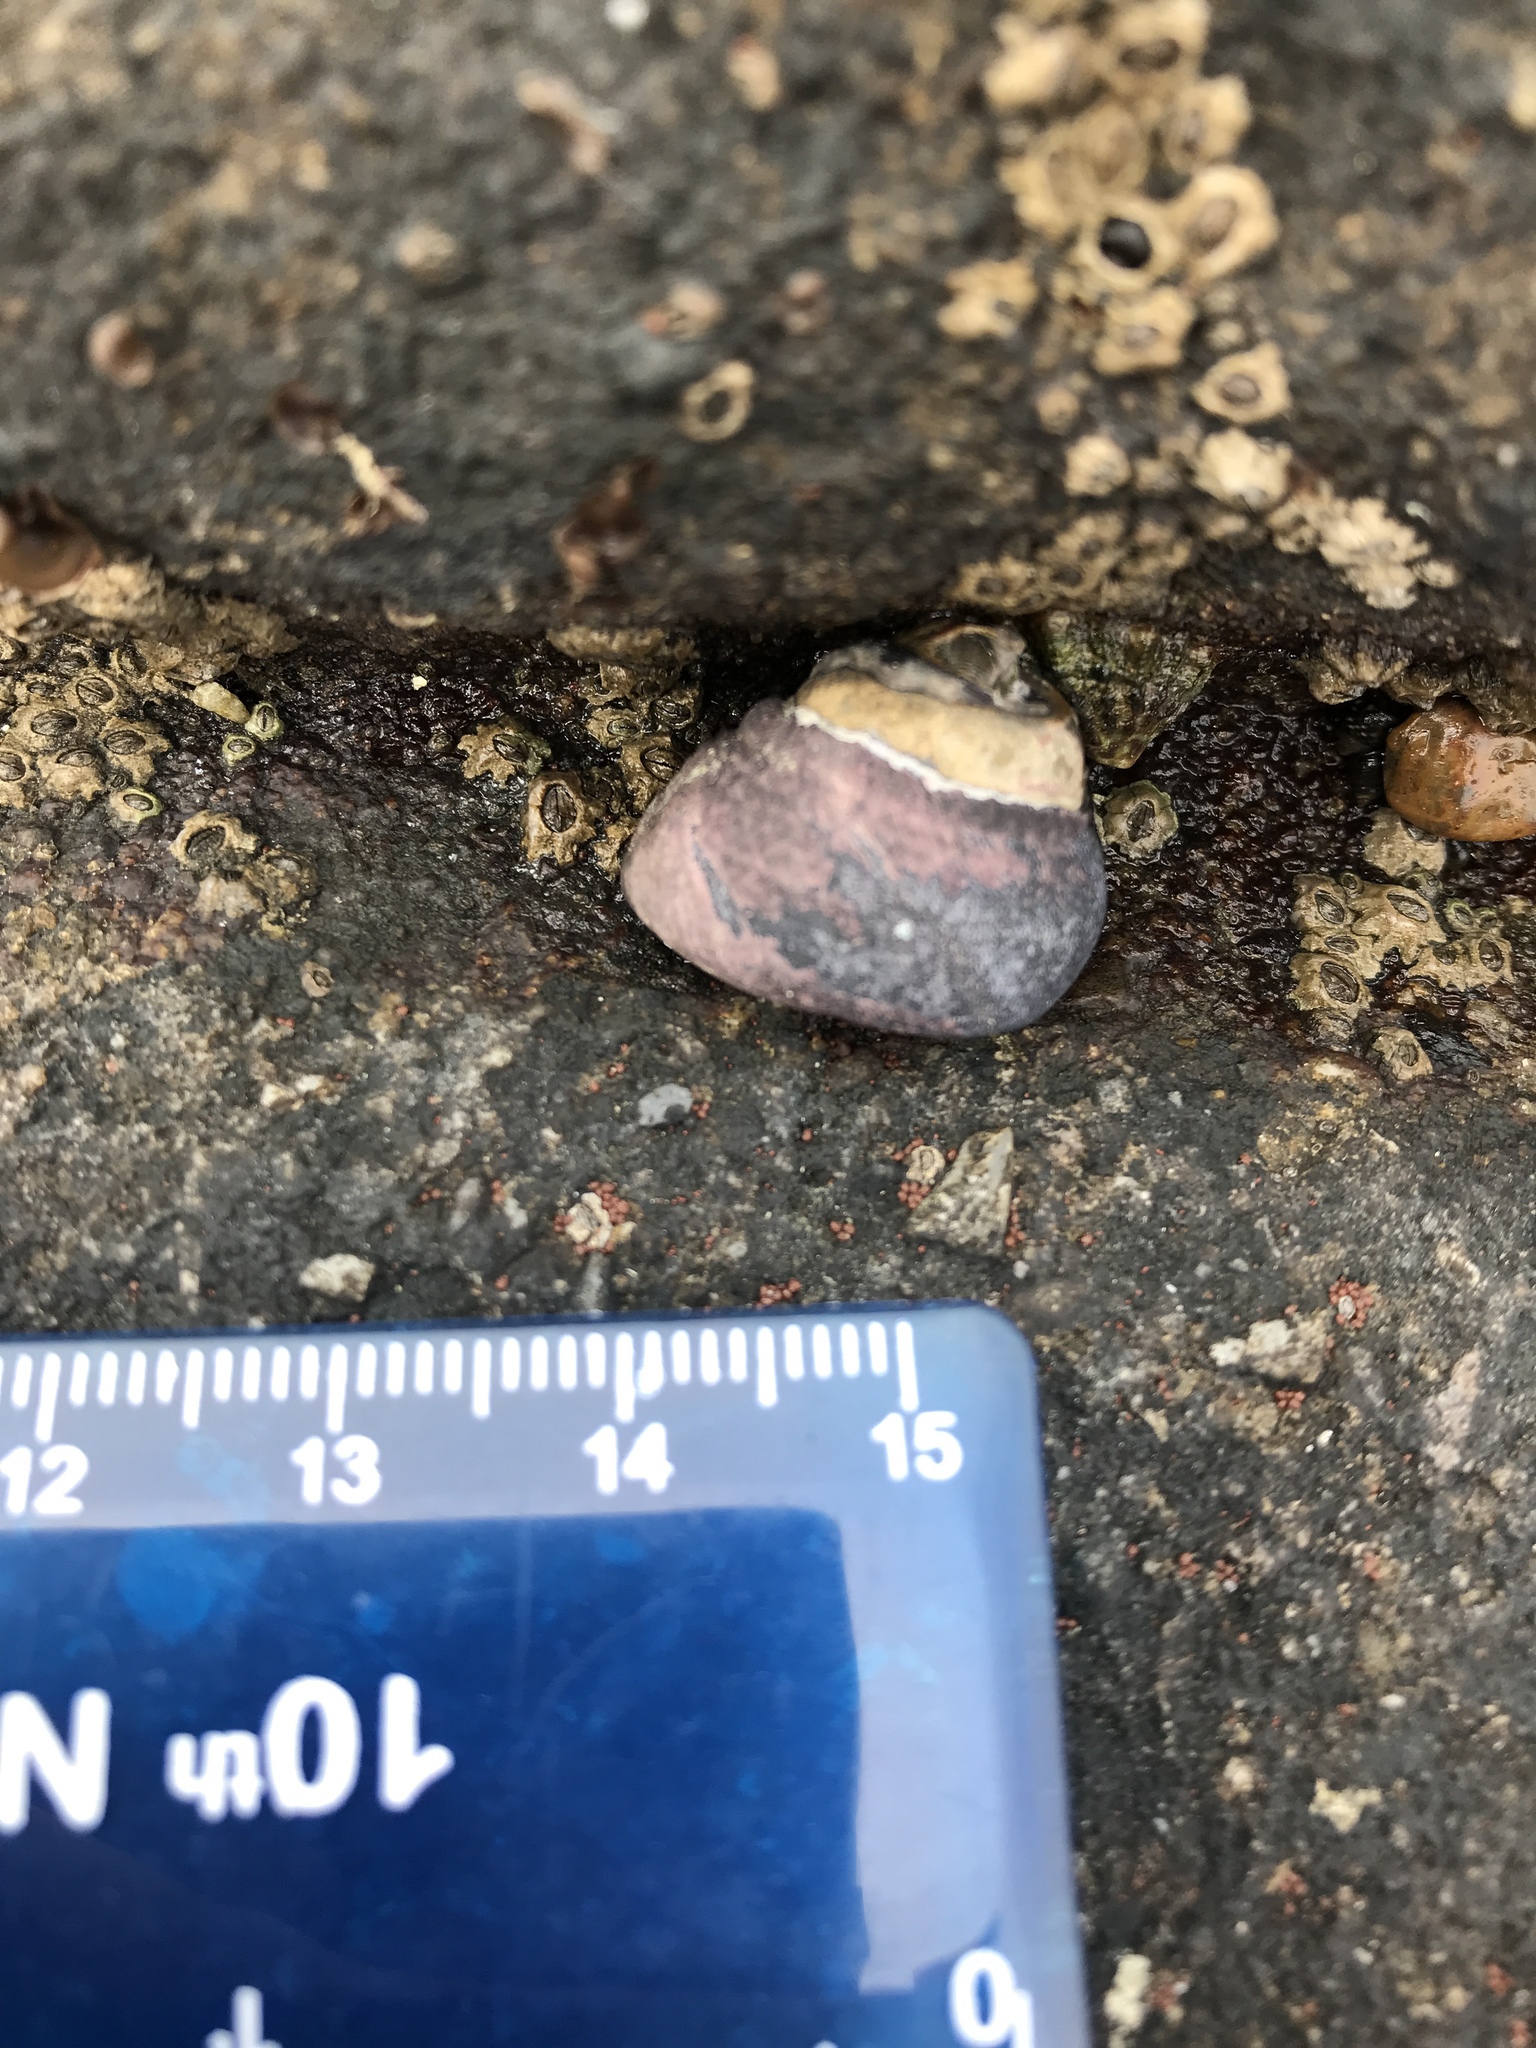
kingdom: Animalia
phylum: Mollusca
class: Gastropoda
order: Trochida
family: Tegulidae
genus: Tegula
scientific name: Tegula funebralis
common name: Black tegula
